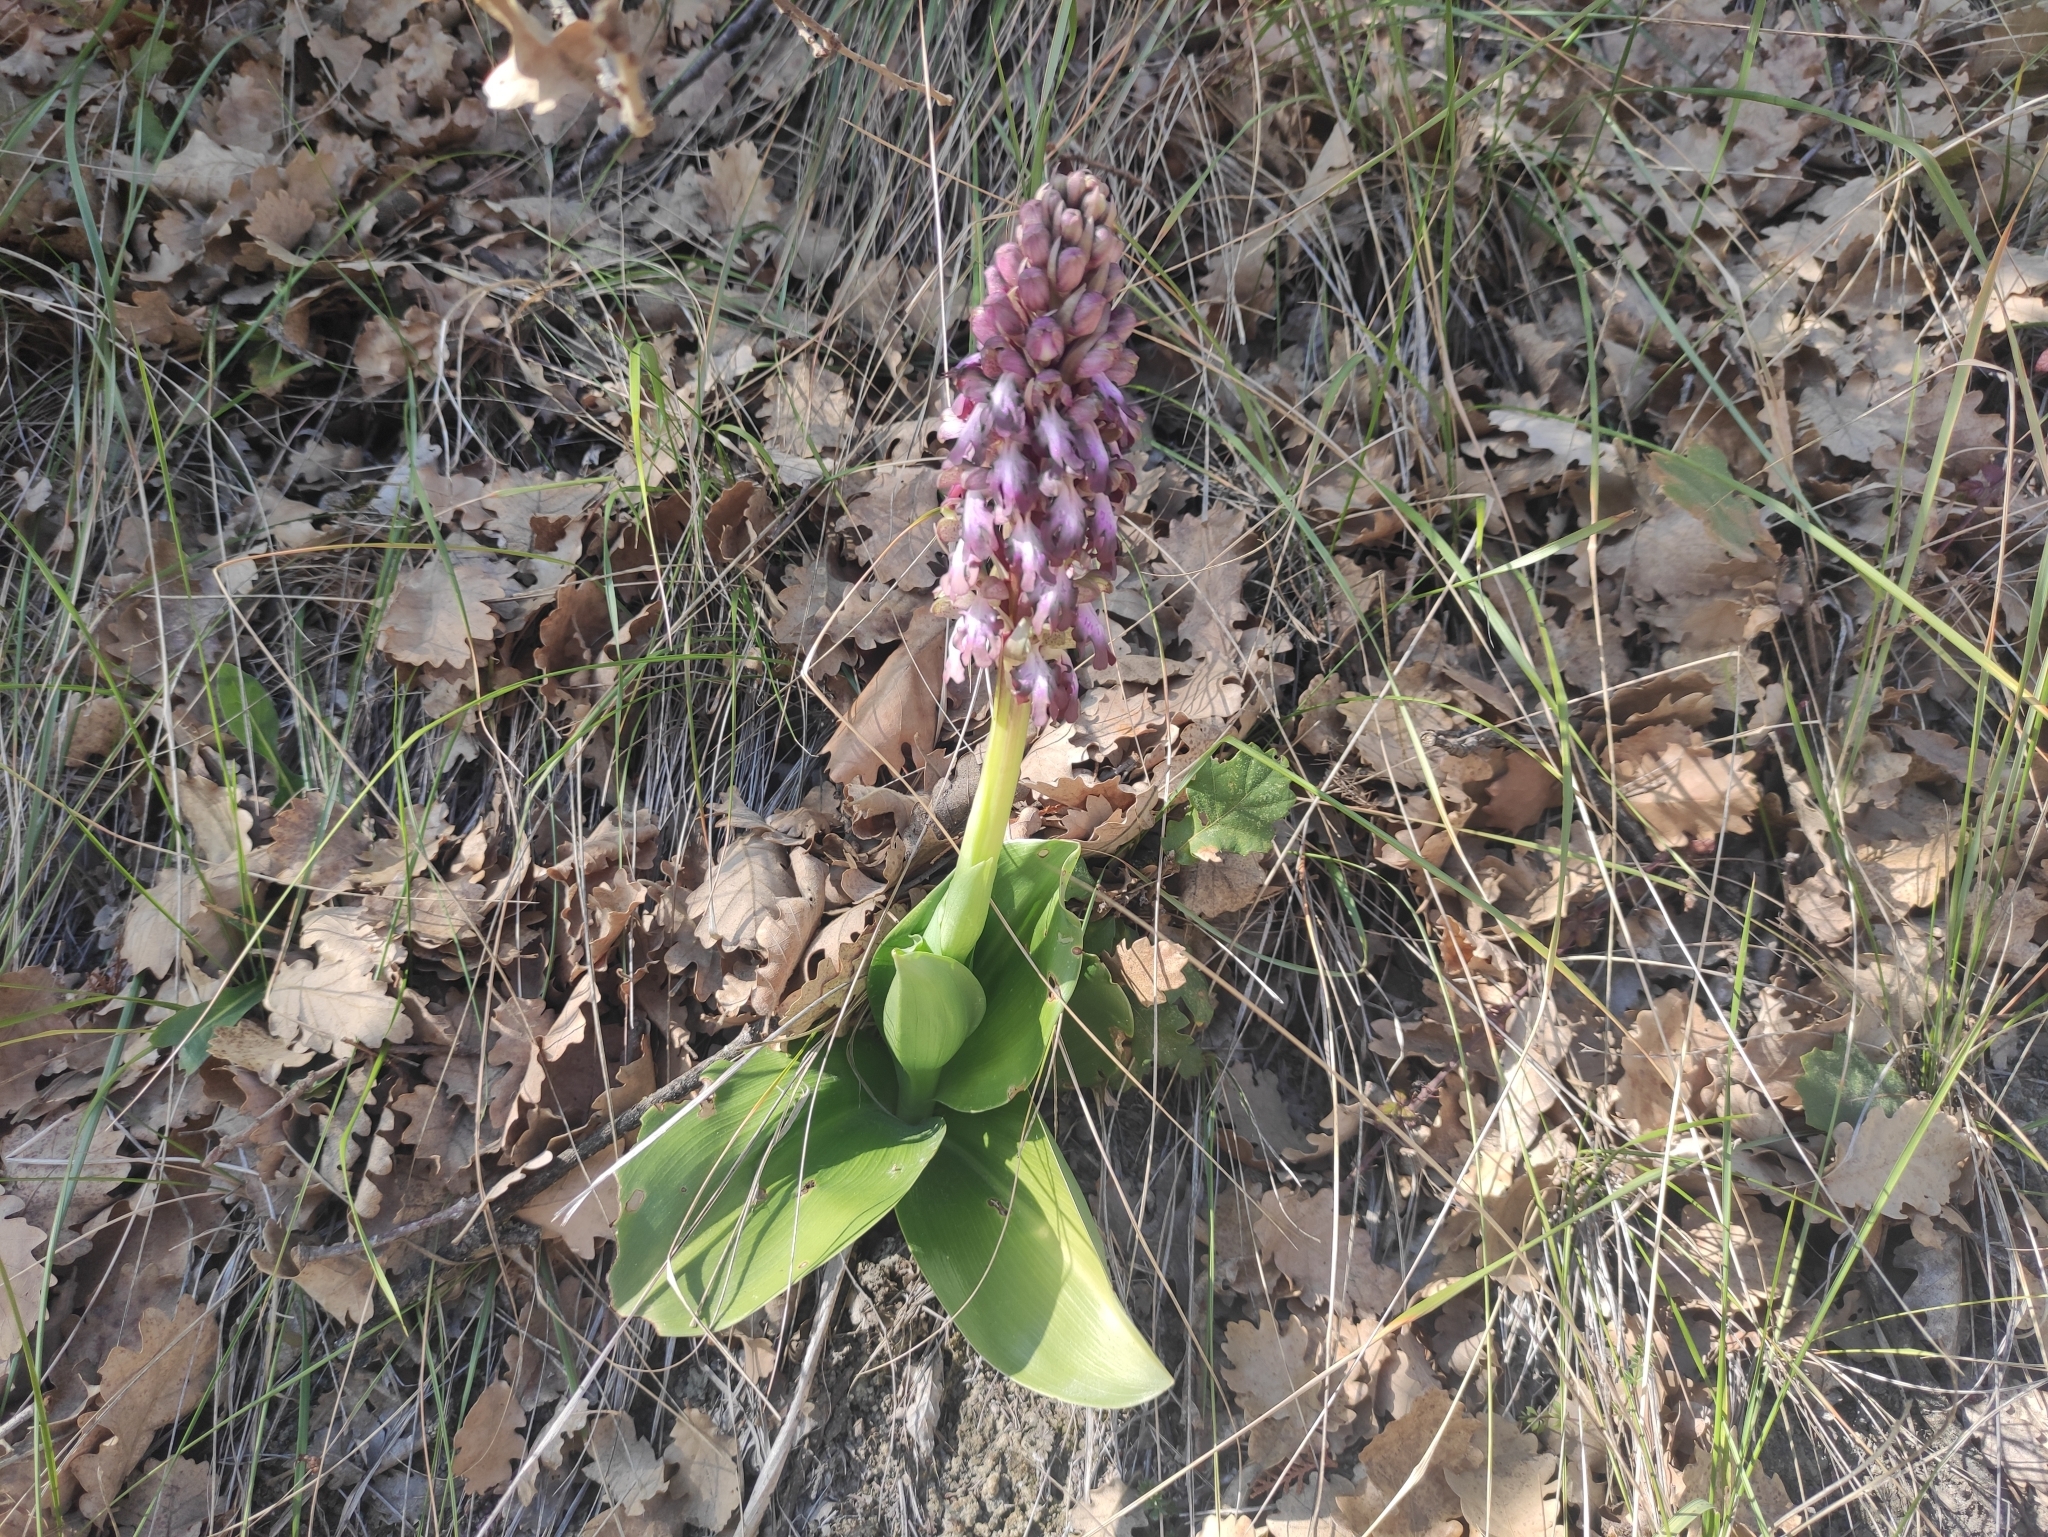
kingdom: Plantae
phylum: Tracheophyta
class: Liliopsida
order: Asparagales
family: Orchidaceae
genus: Himantoglossum
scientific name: Himantoglossum robertianum
